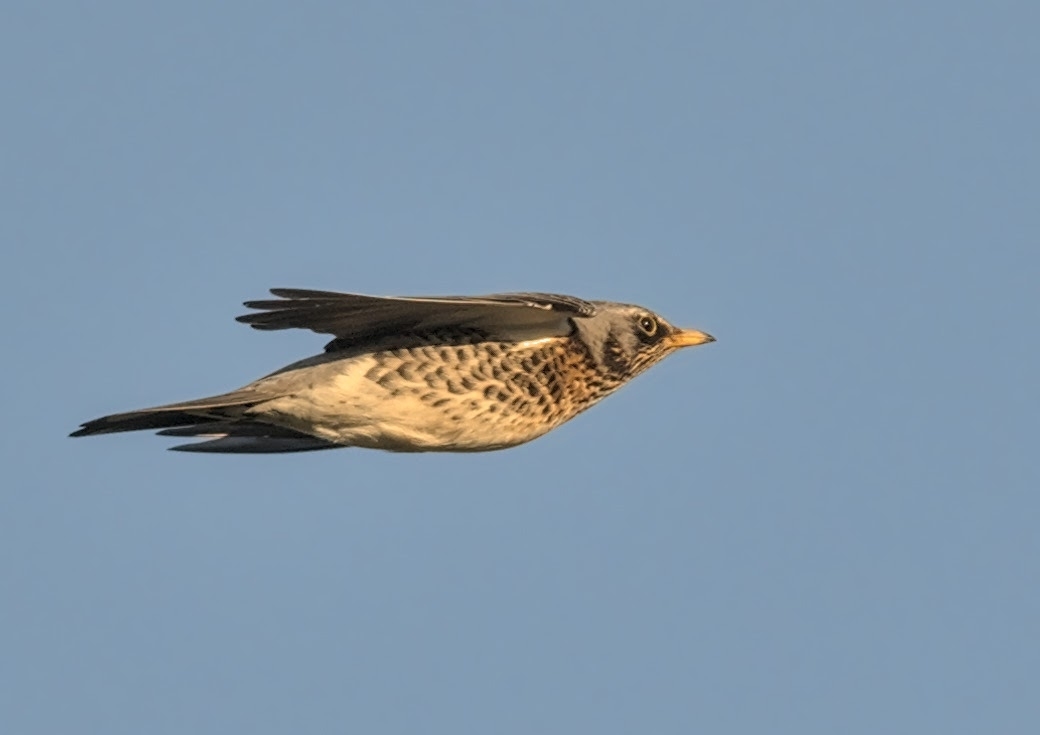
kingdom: Animalia
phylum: Chordata
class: Aves
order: Passeriformes
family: Turdidae
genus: Turdus
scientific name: Turdus pilaris
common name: Fieldfare
